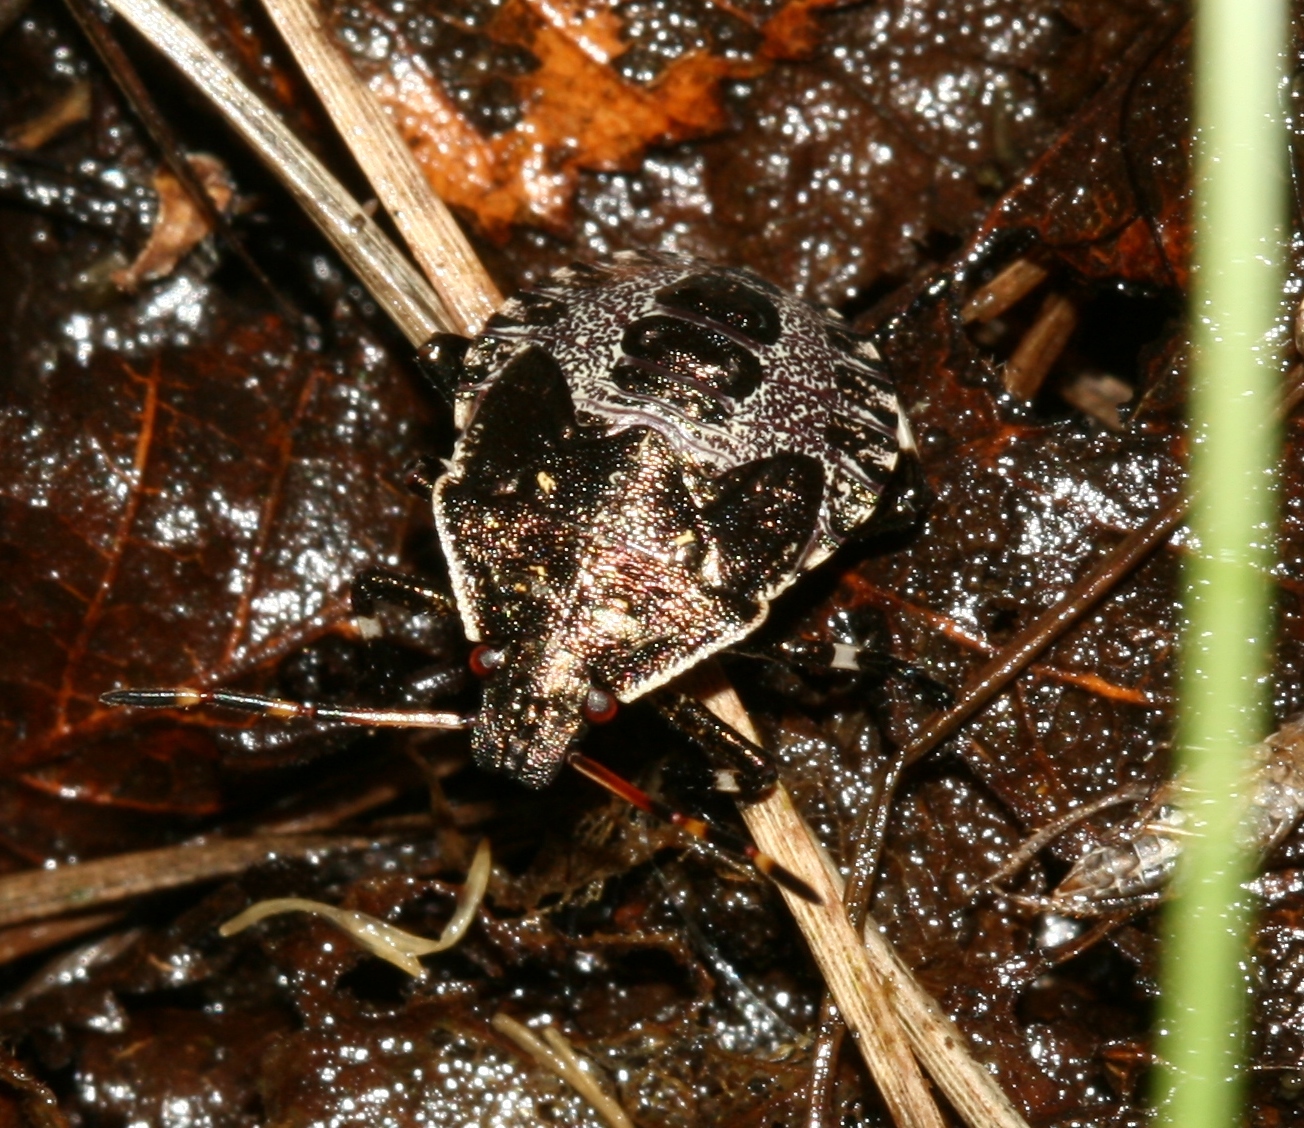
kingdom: Animalia
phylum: Arthropoda
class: Insecta
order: Hemiptera
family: Pentatomidae
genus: Picromerus
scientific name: Picromerus bidens
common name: Spiked shieldbug
